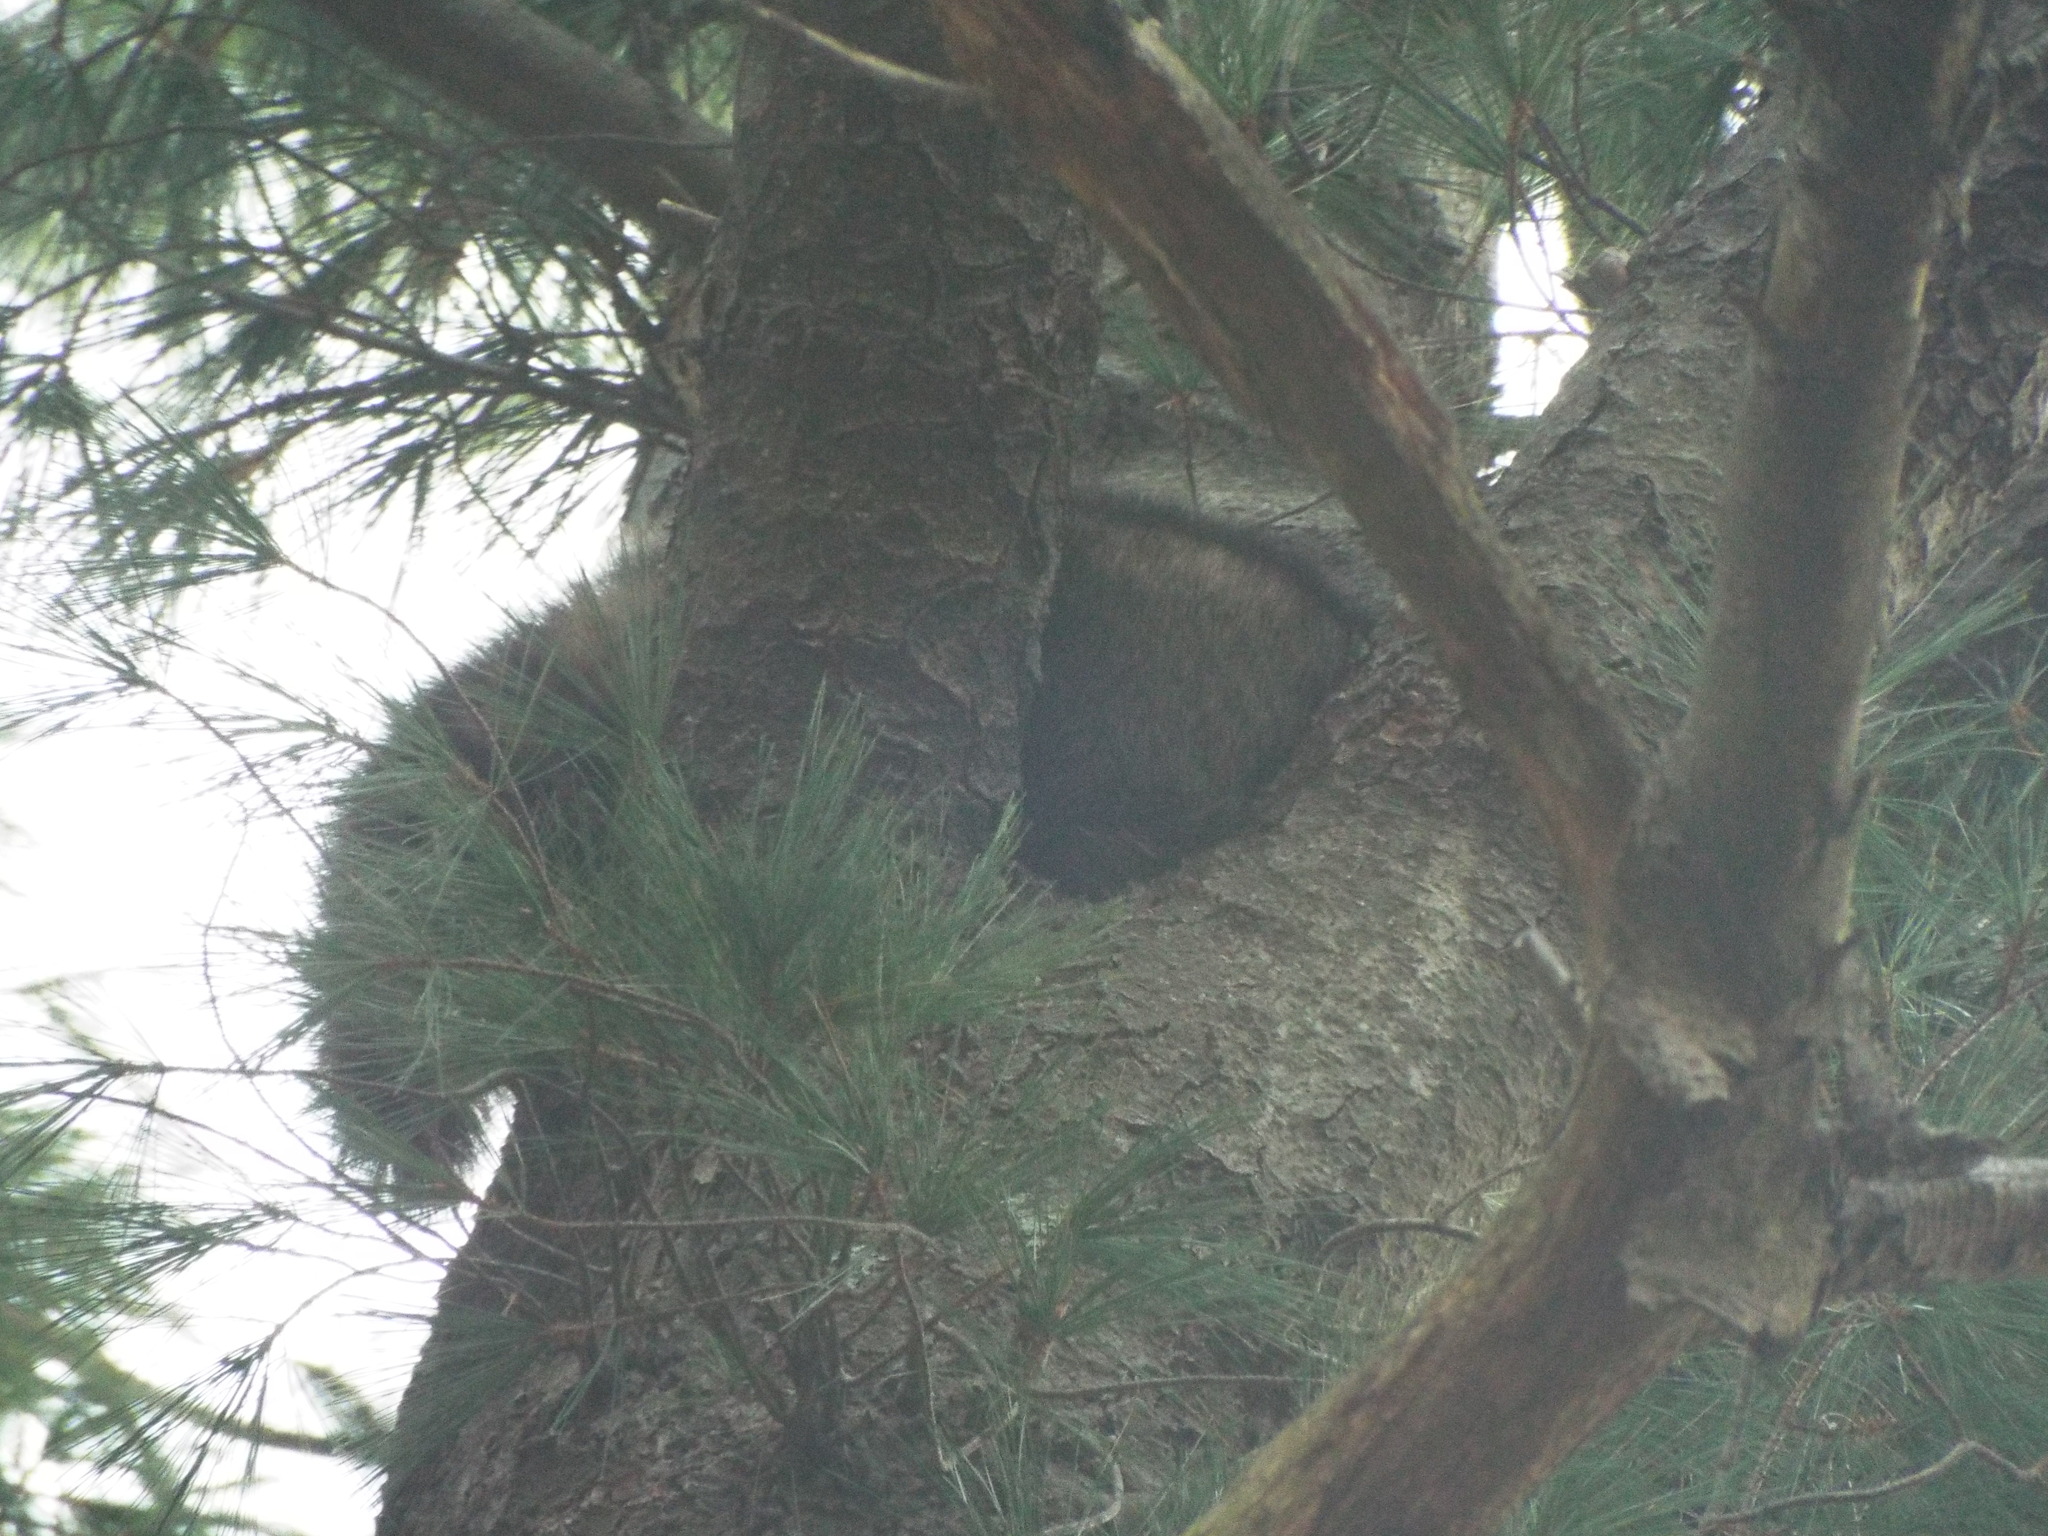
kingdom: Animalia
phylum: Chordata
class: Mammalia
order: Carnivora
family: Procyonidae
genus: Procyon
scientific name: Procyon lotor
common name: Raccoon
